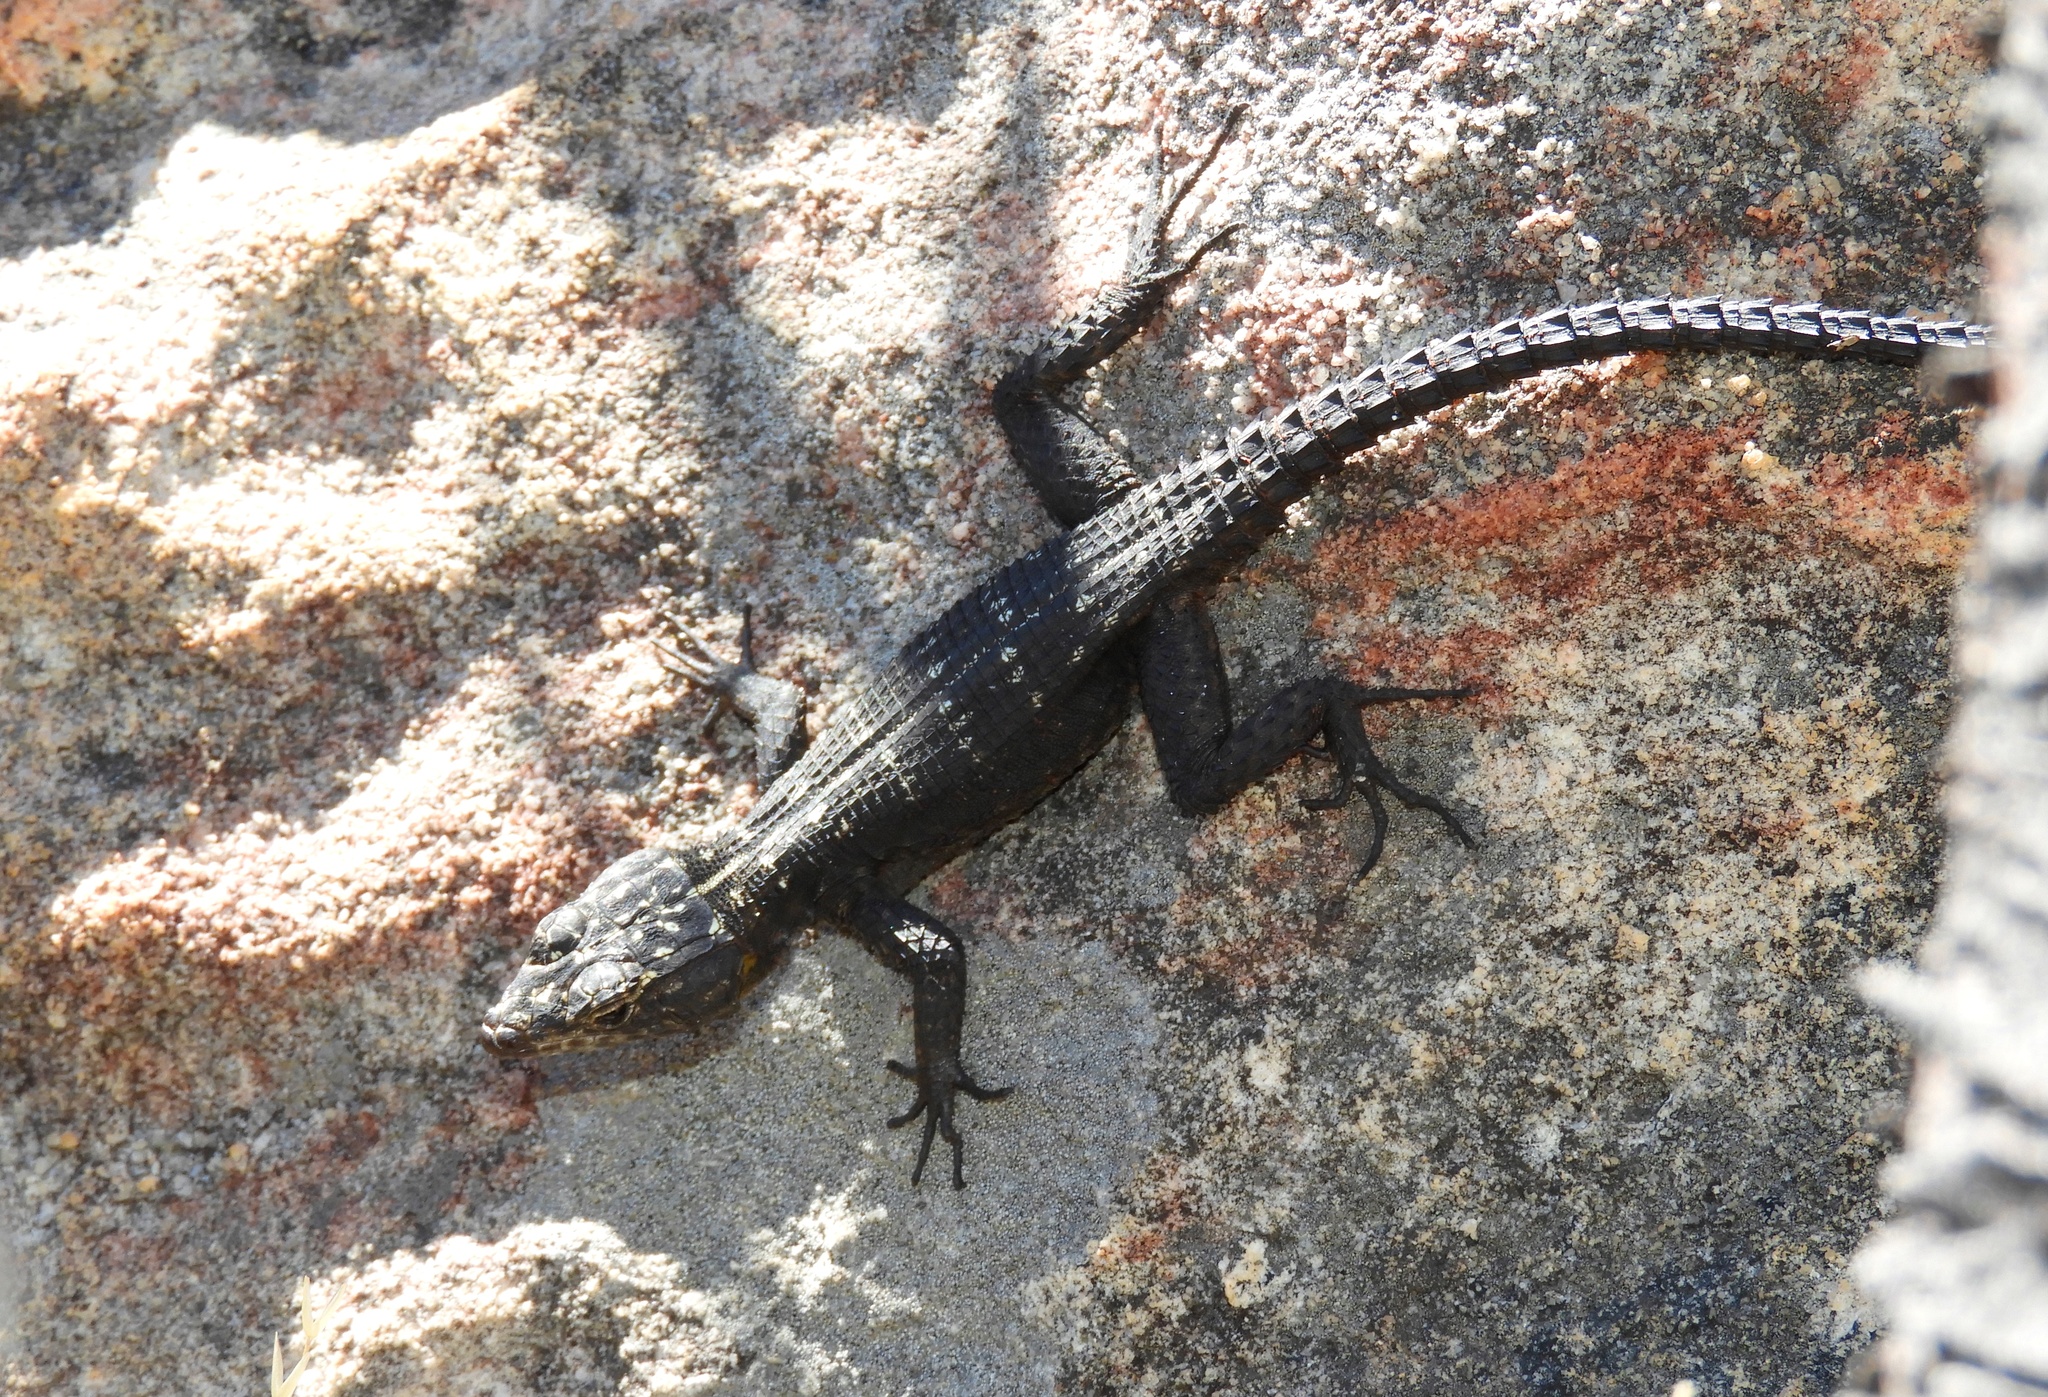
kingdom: Animalia
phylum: Chordata
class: Squamata
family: Cordylidae
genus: Hemicordylus
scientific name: Hemicordylus capensis
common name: Graceful crag lizard
